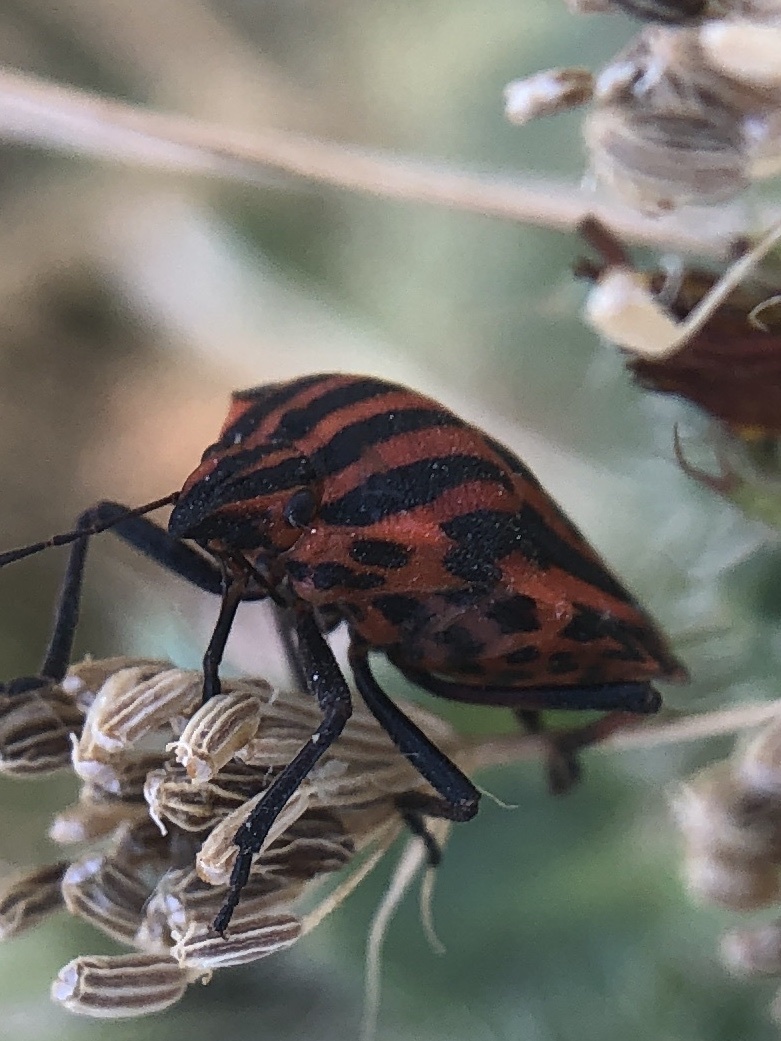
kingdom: Animalia
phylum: Arthropoda
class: Insecta
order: Hemiptera
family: Pentatomidae
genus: Graphosoma
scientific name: Graphosoma italicum
